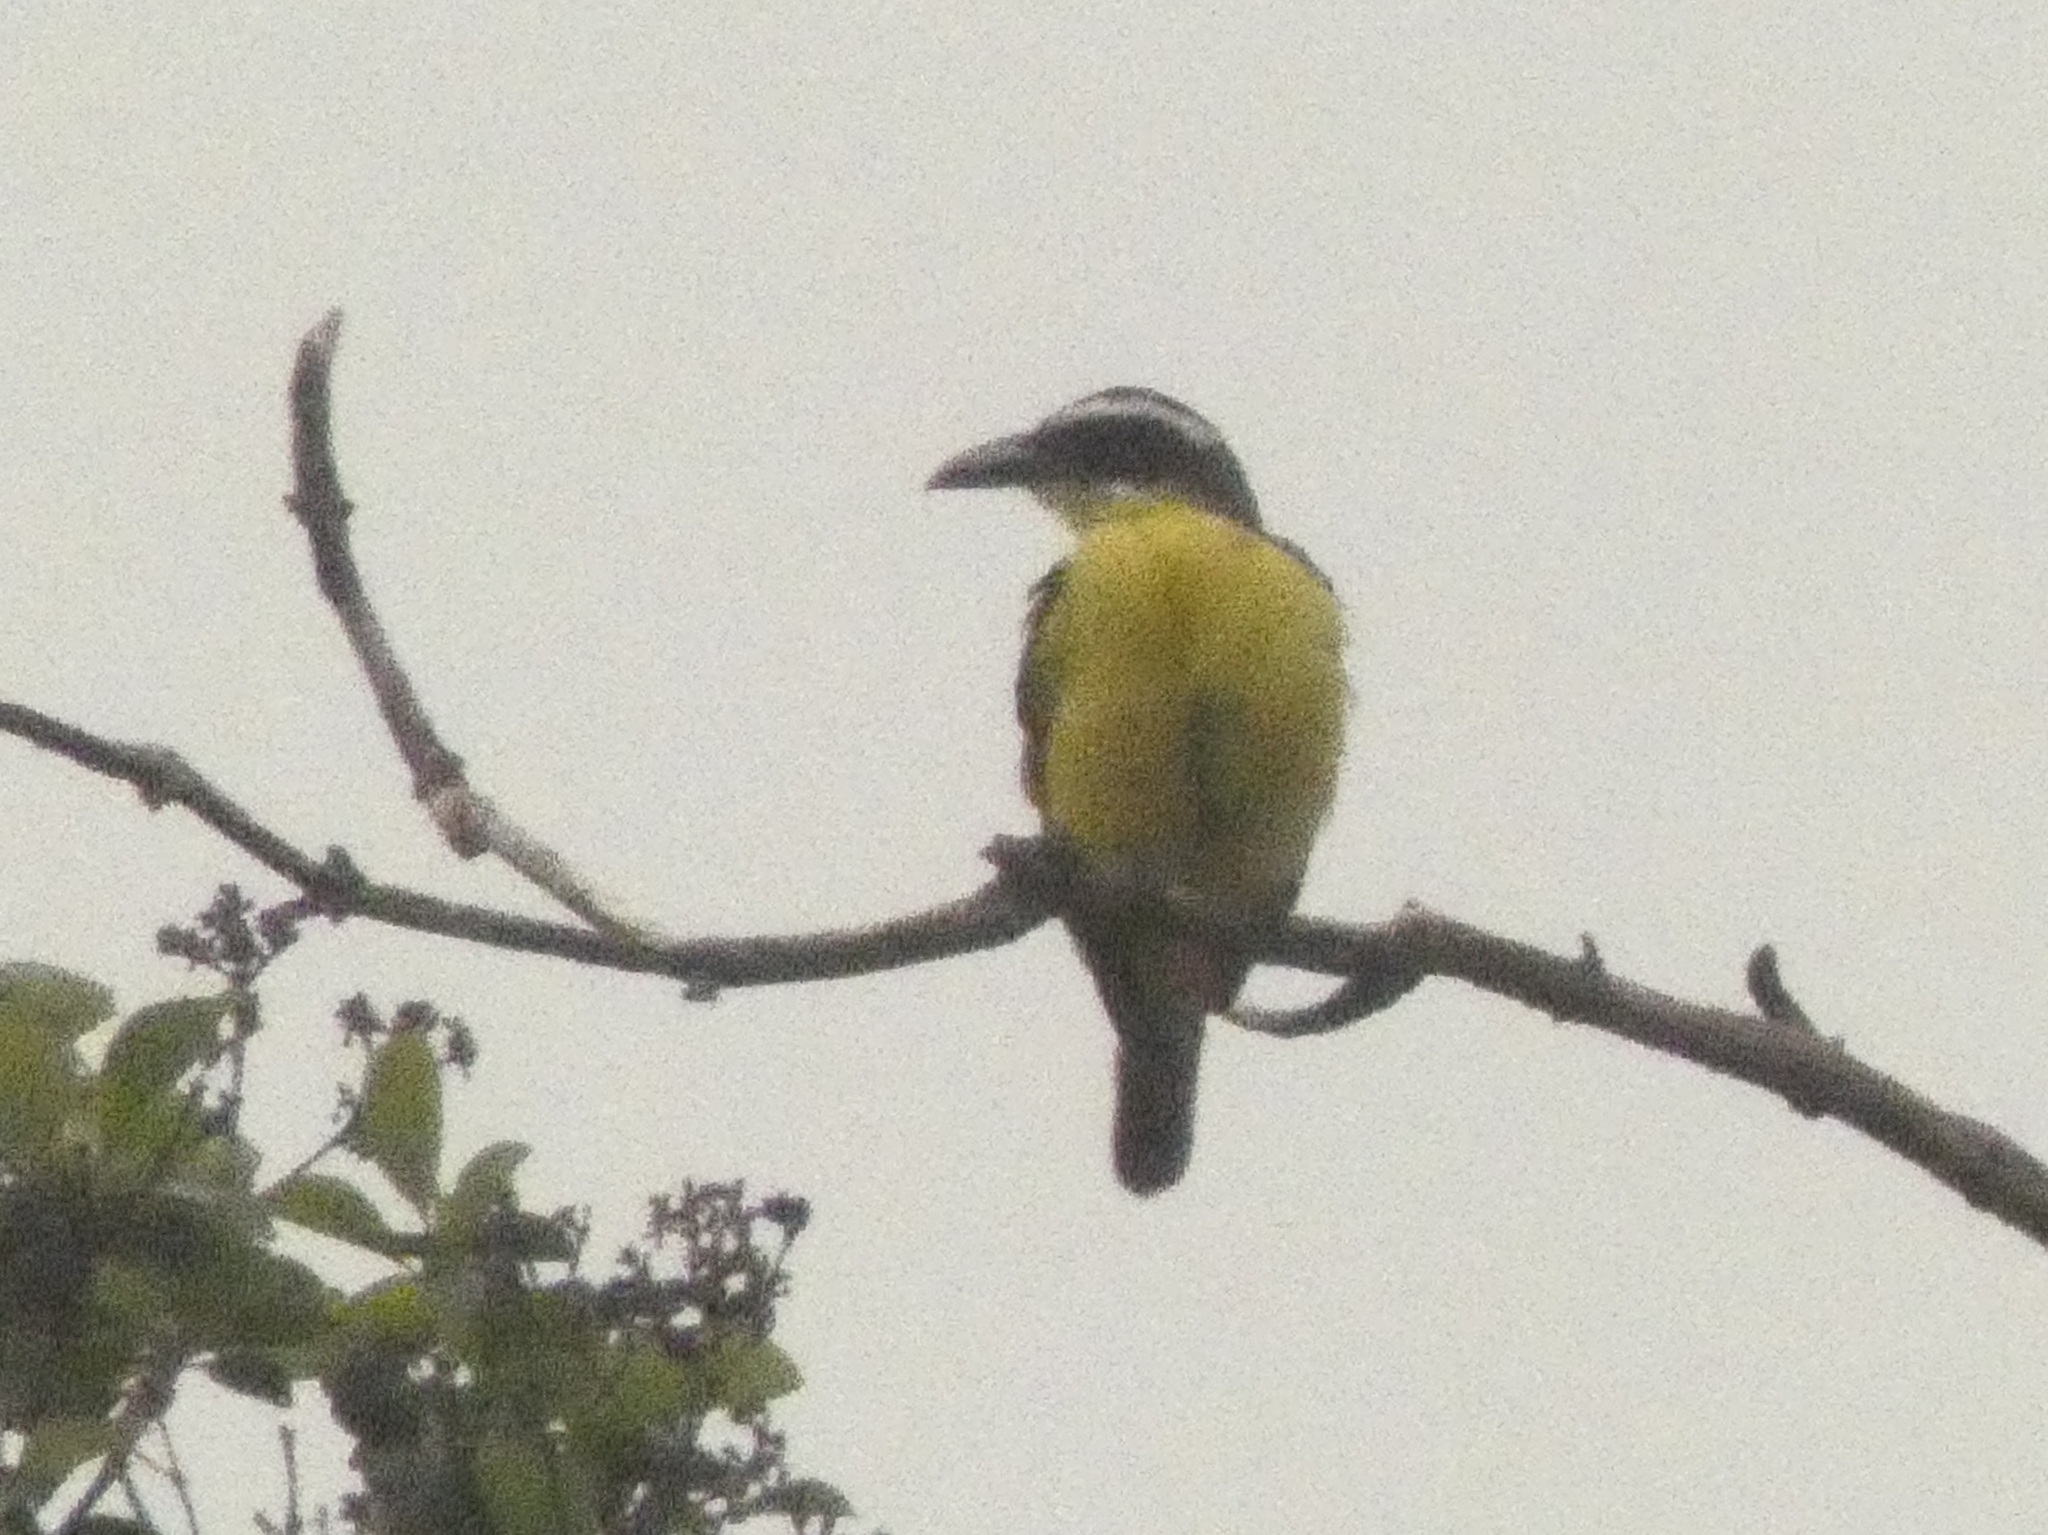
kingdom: Animalia
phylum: Chordata
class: Aves
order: Passeriformes
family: Tyrannidae
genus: Megarynchus
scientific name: Megarynchus pitangua
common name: Boat-billed flycatcher
